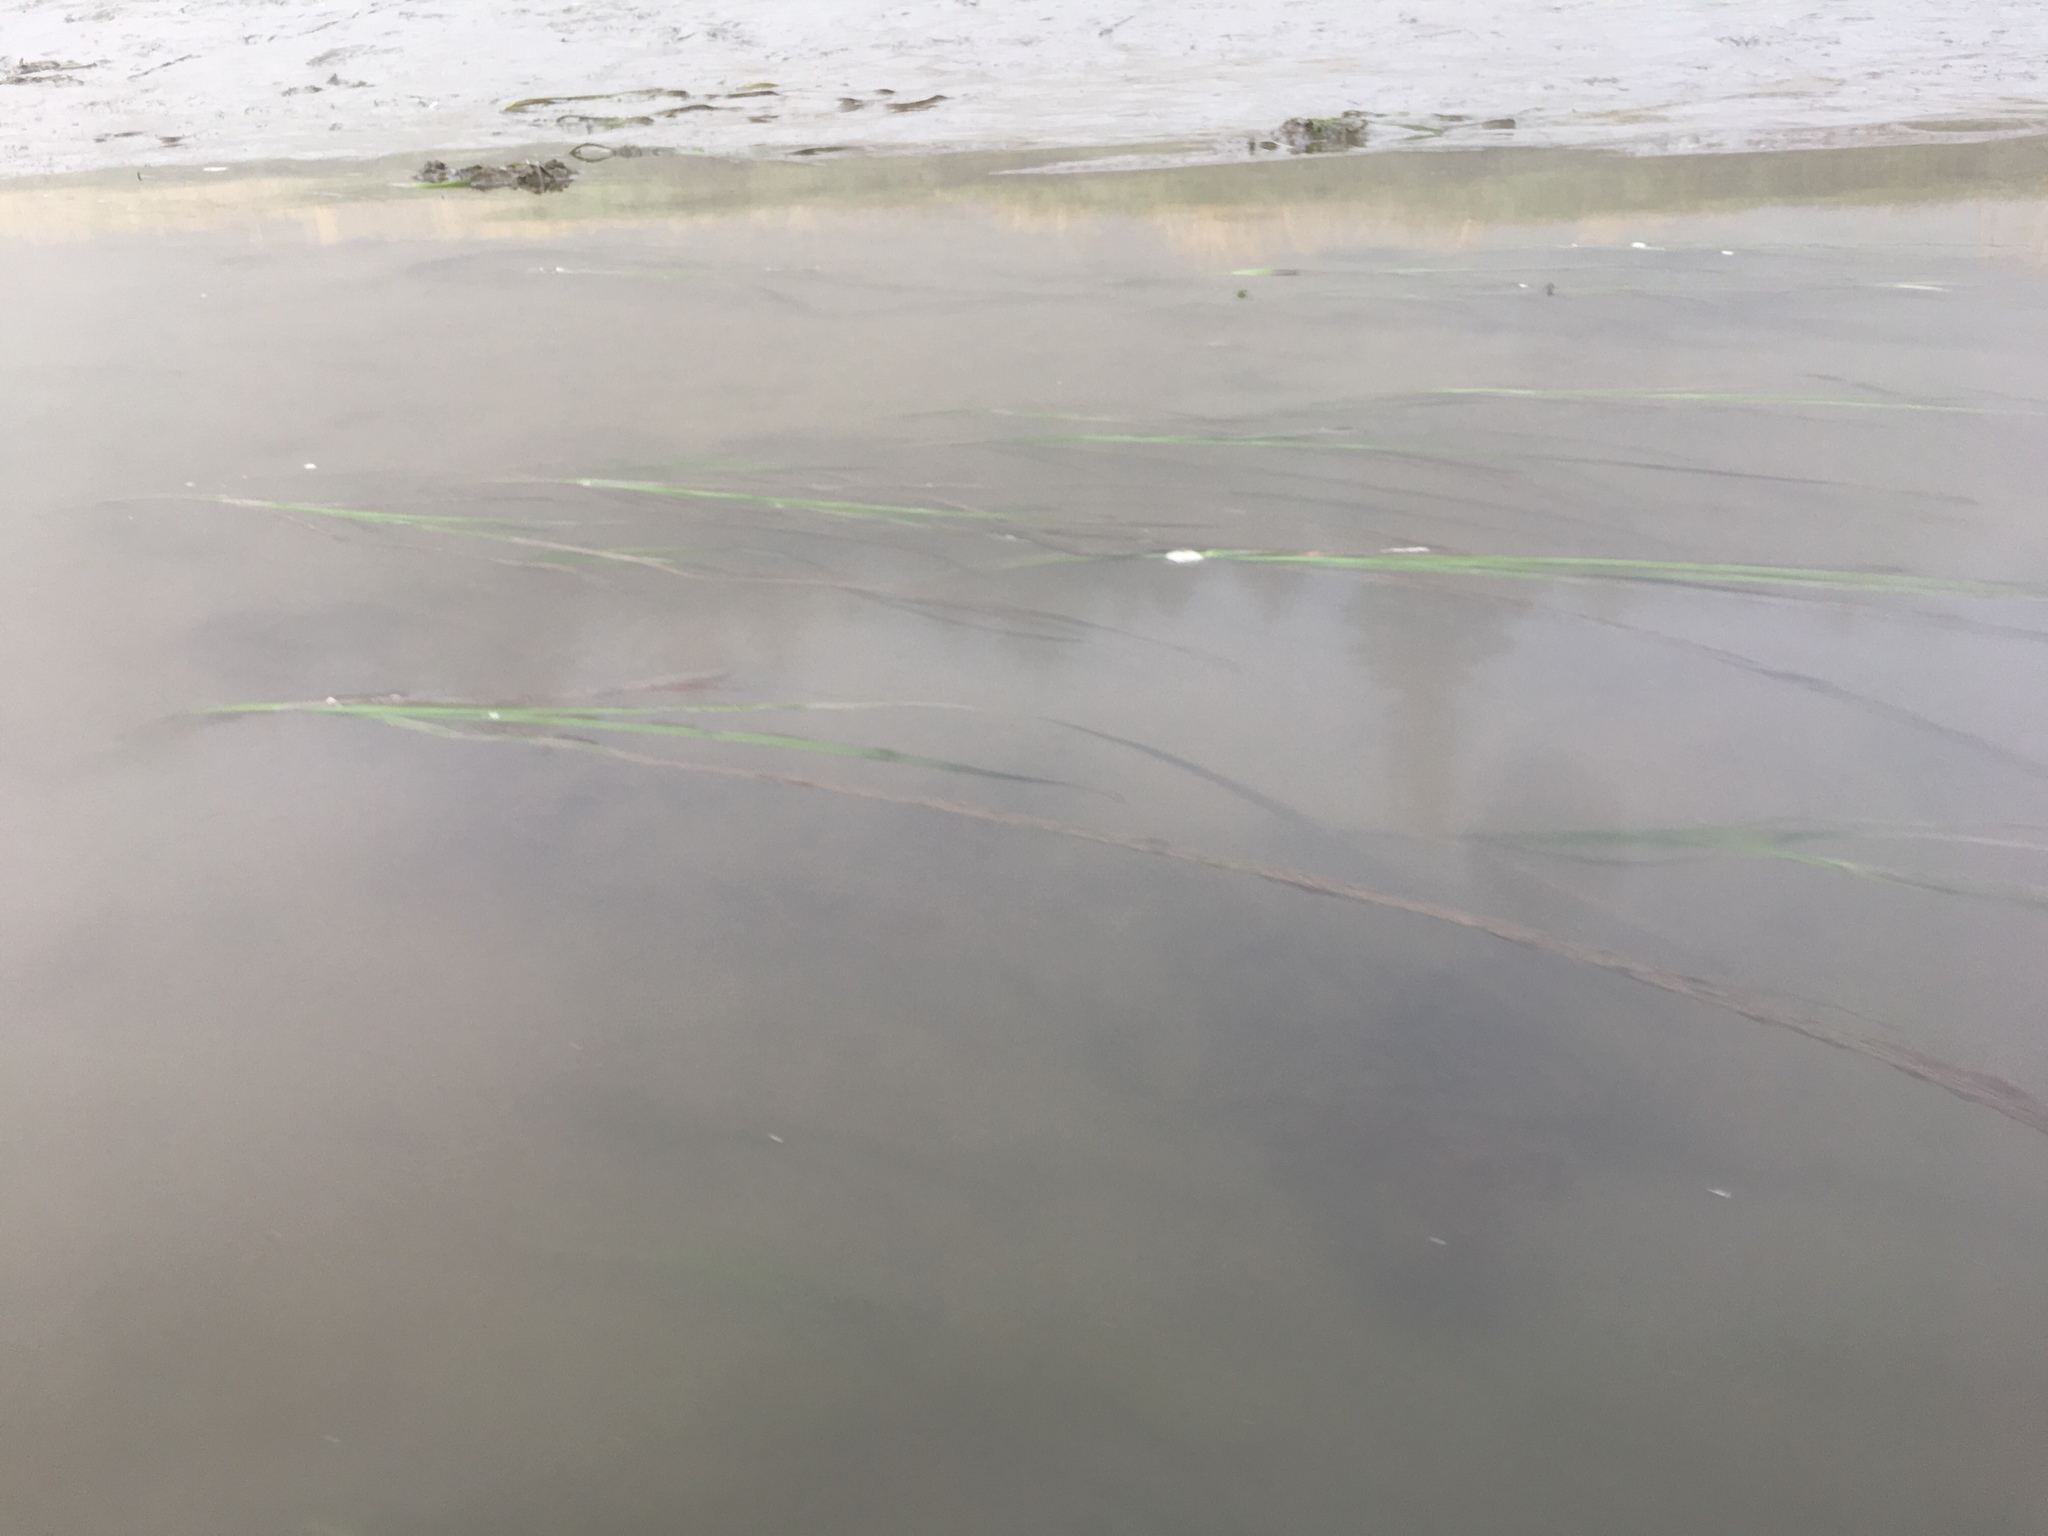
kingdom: Plantae
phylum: Tracheophyta
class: Liliopsida
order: Alismatales
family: Zosteraceae
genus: Zostera
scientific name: Zostera marina
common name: Eelgrass
